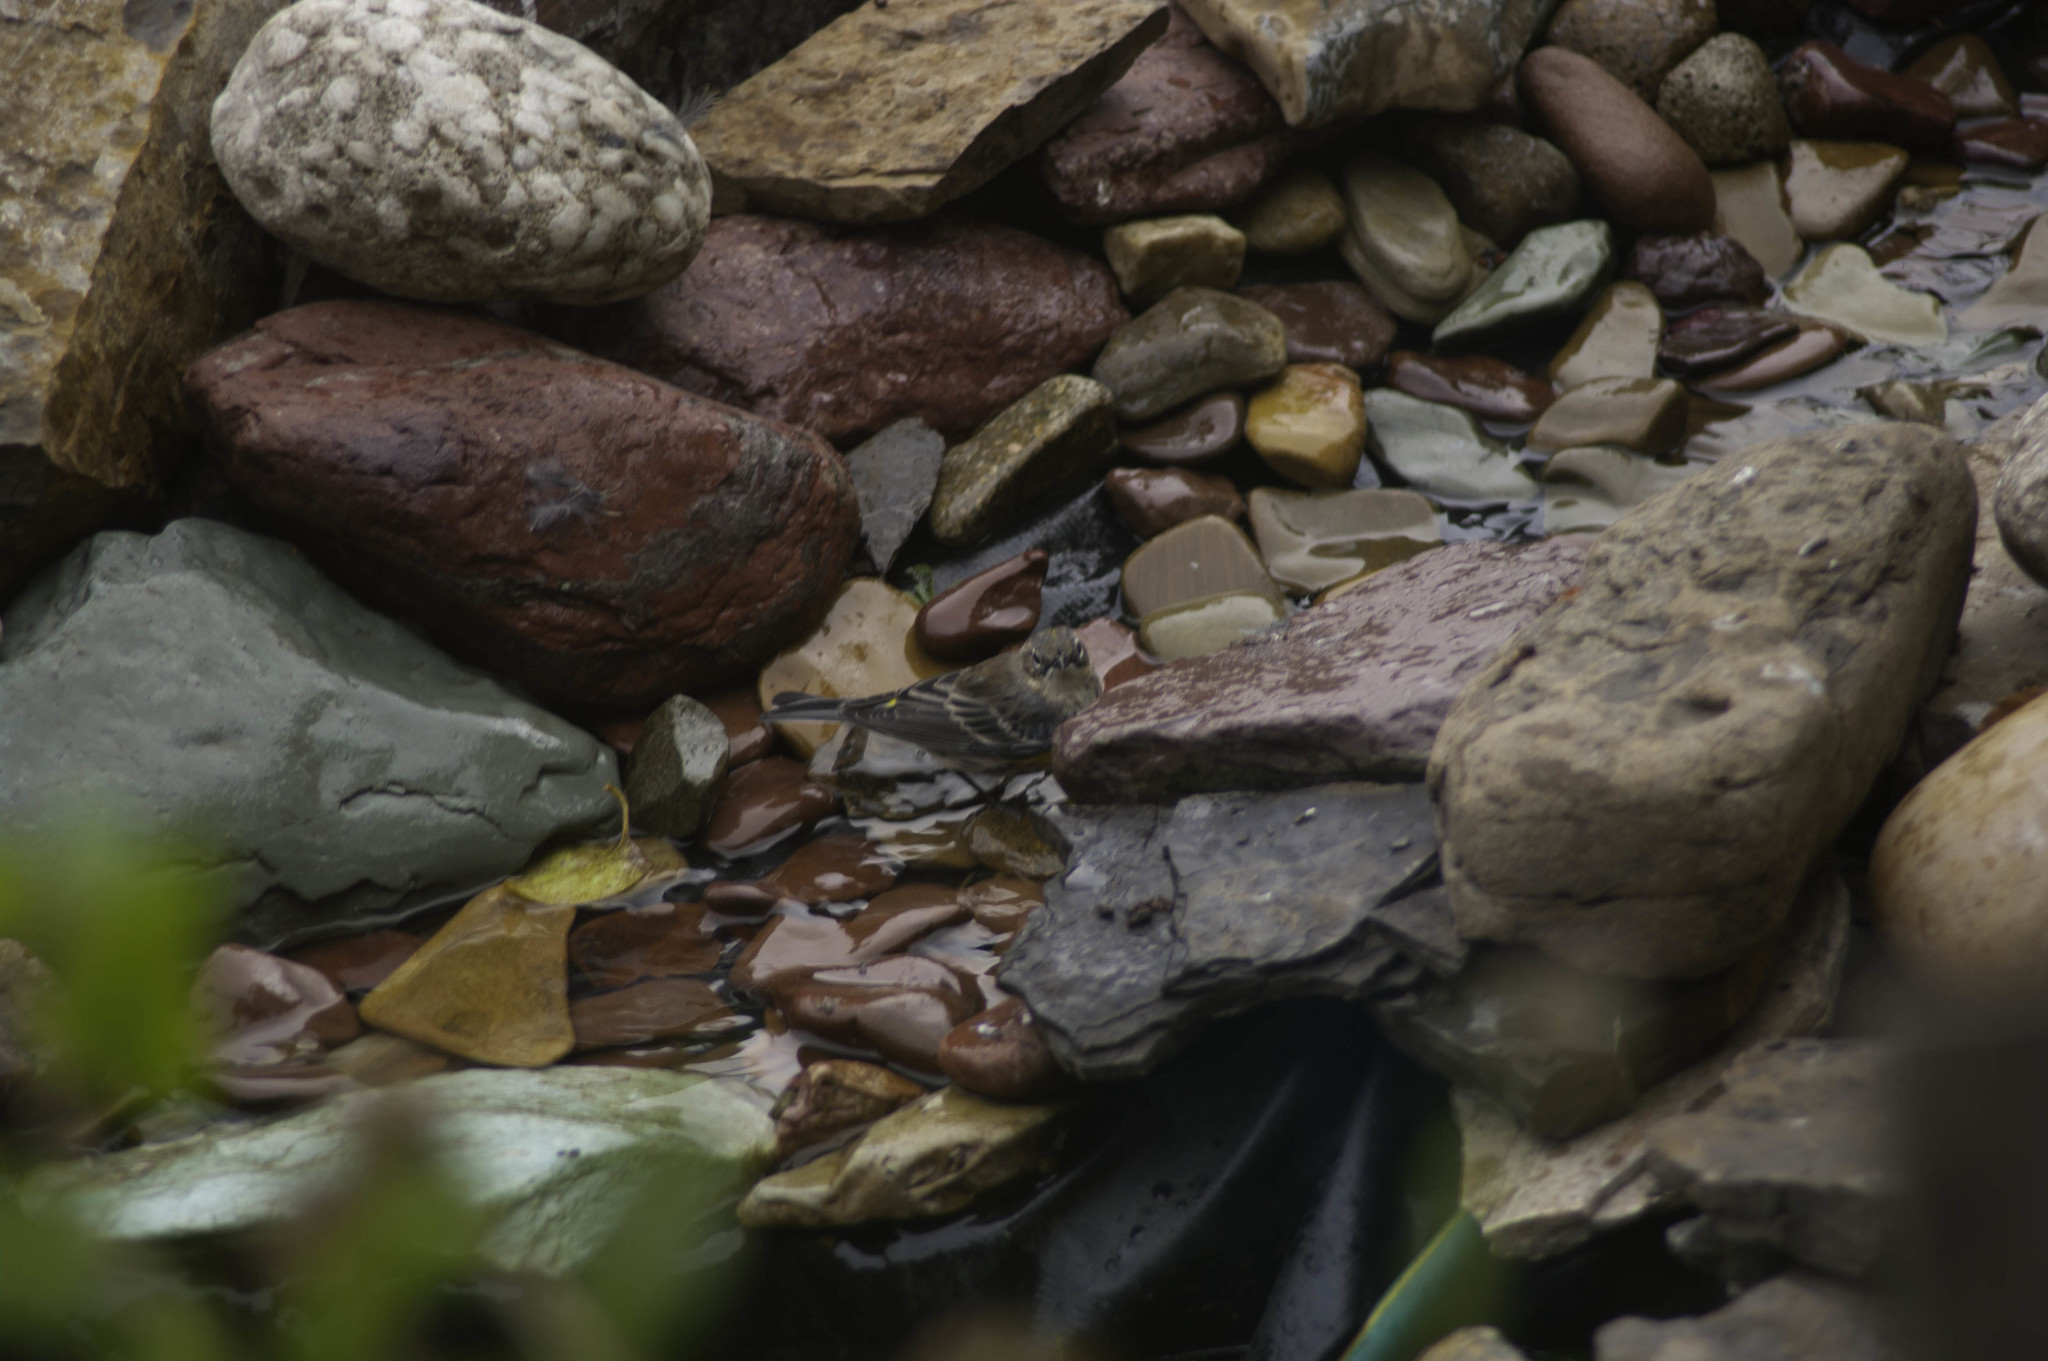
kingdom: Animalia
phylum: Chordata
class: Aves
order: Passeriformes
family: Parulidae
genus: Setophaga
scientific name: Setophaga coronata
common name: Myrtle warbler
